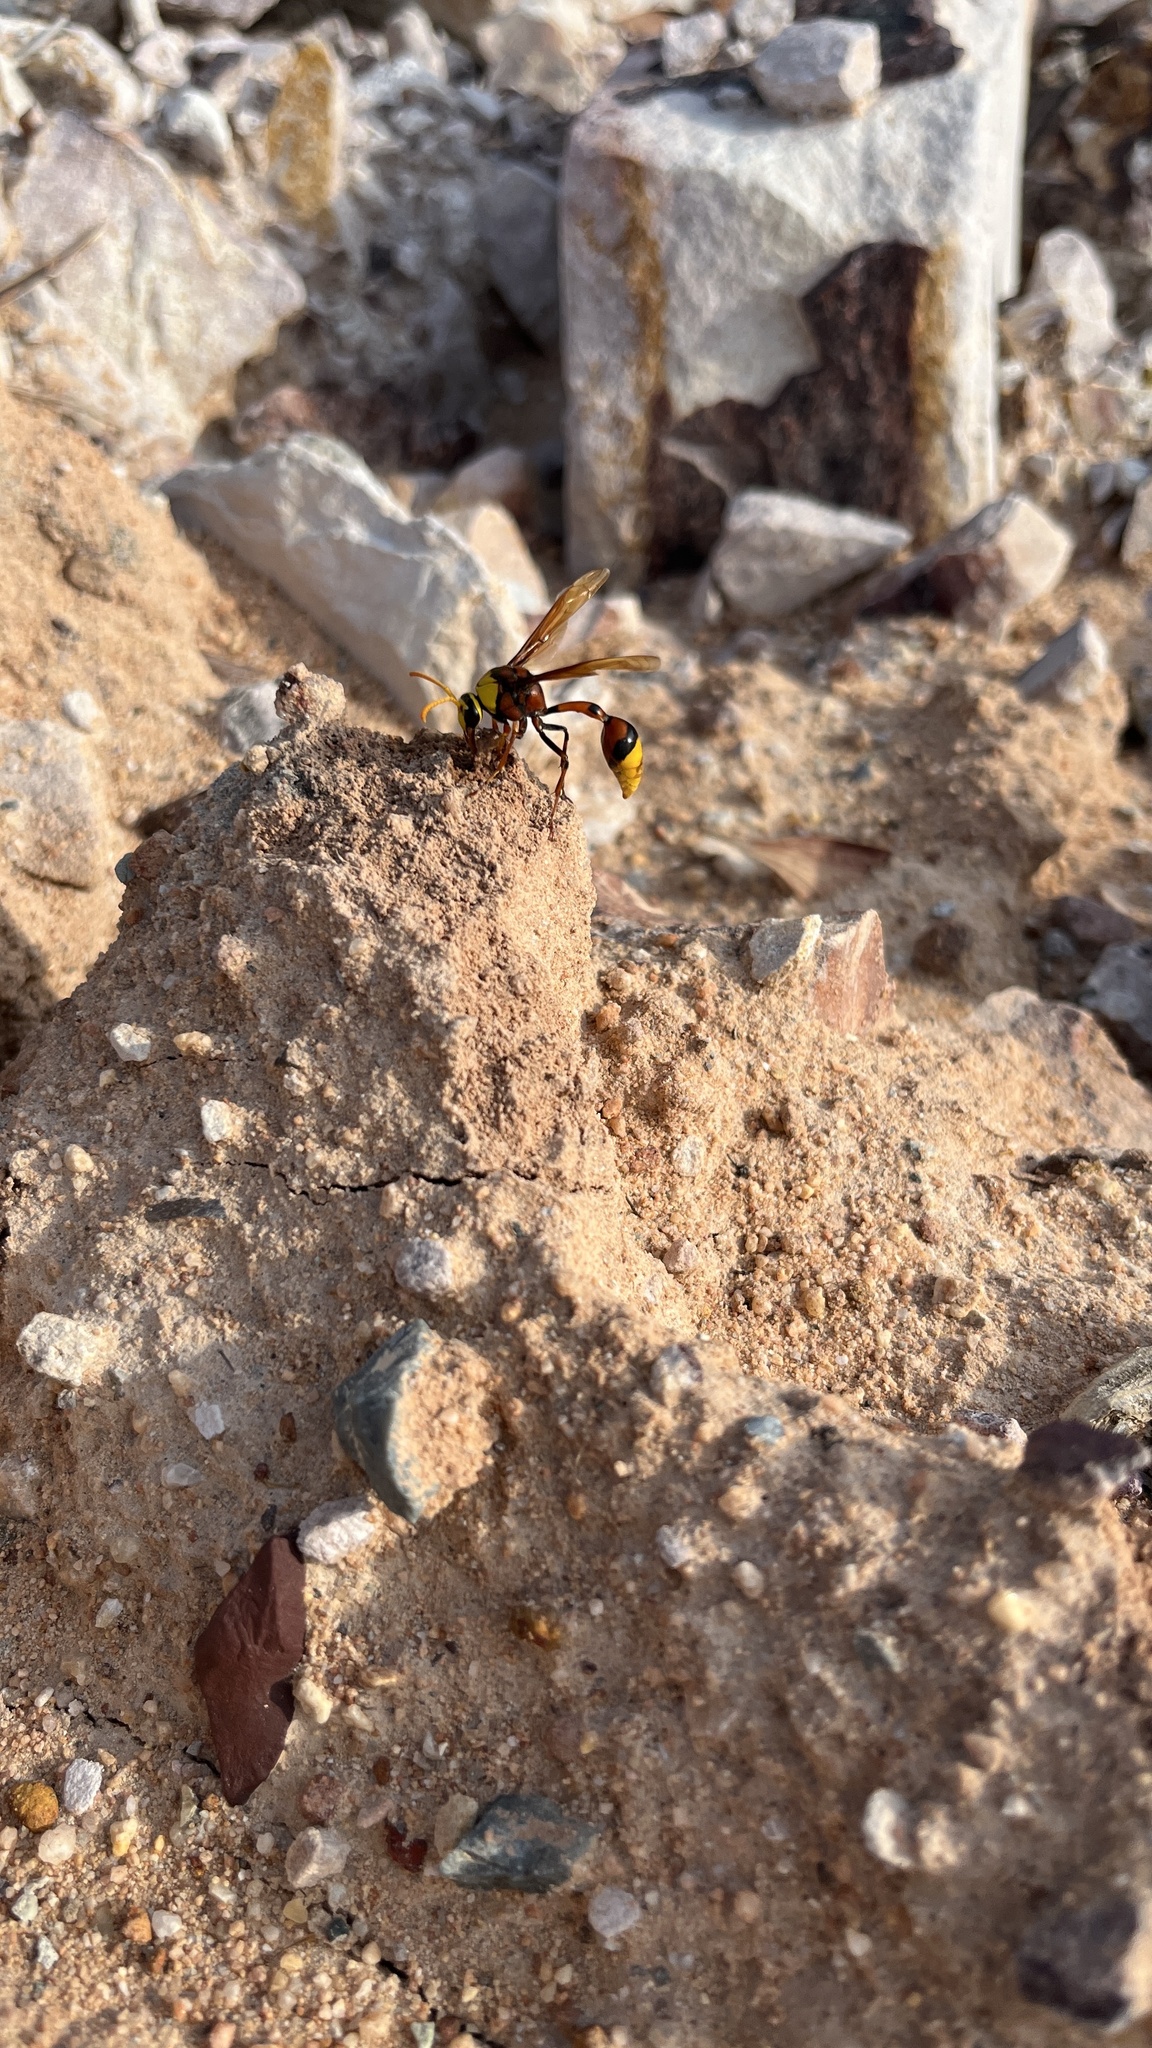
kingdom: Animalia
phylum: Arthropoda
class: Insecta
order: Hymenoptera
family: Eumenidae
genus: Delta
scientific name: Delta pyriforme
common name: Wasp
